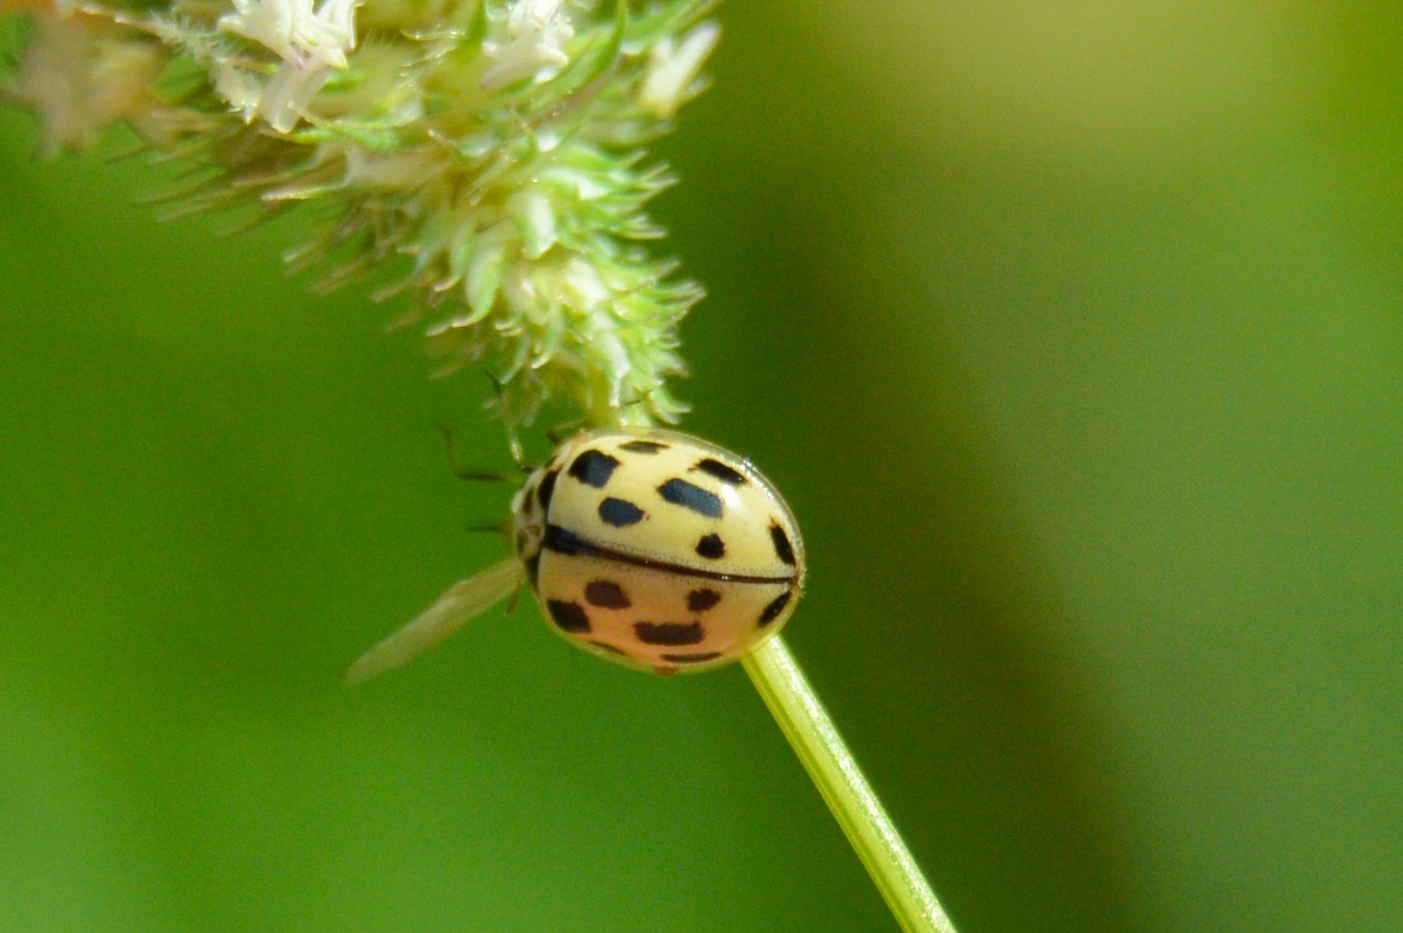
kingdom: Animalia
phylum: Arthropoda
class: Insecta
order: Coleoptera
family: Coccinellidae
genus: Propylaea
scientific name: Propylaea quatuordecimpunctata
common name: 14-spotted ladybird beetle
